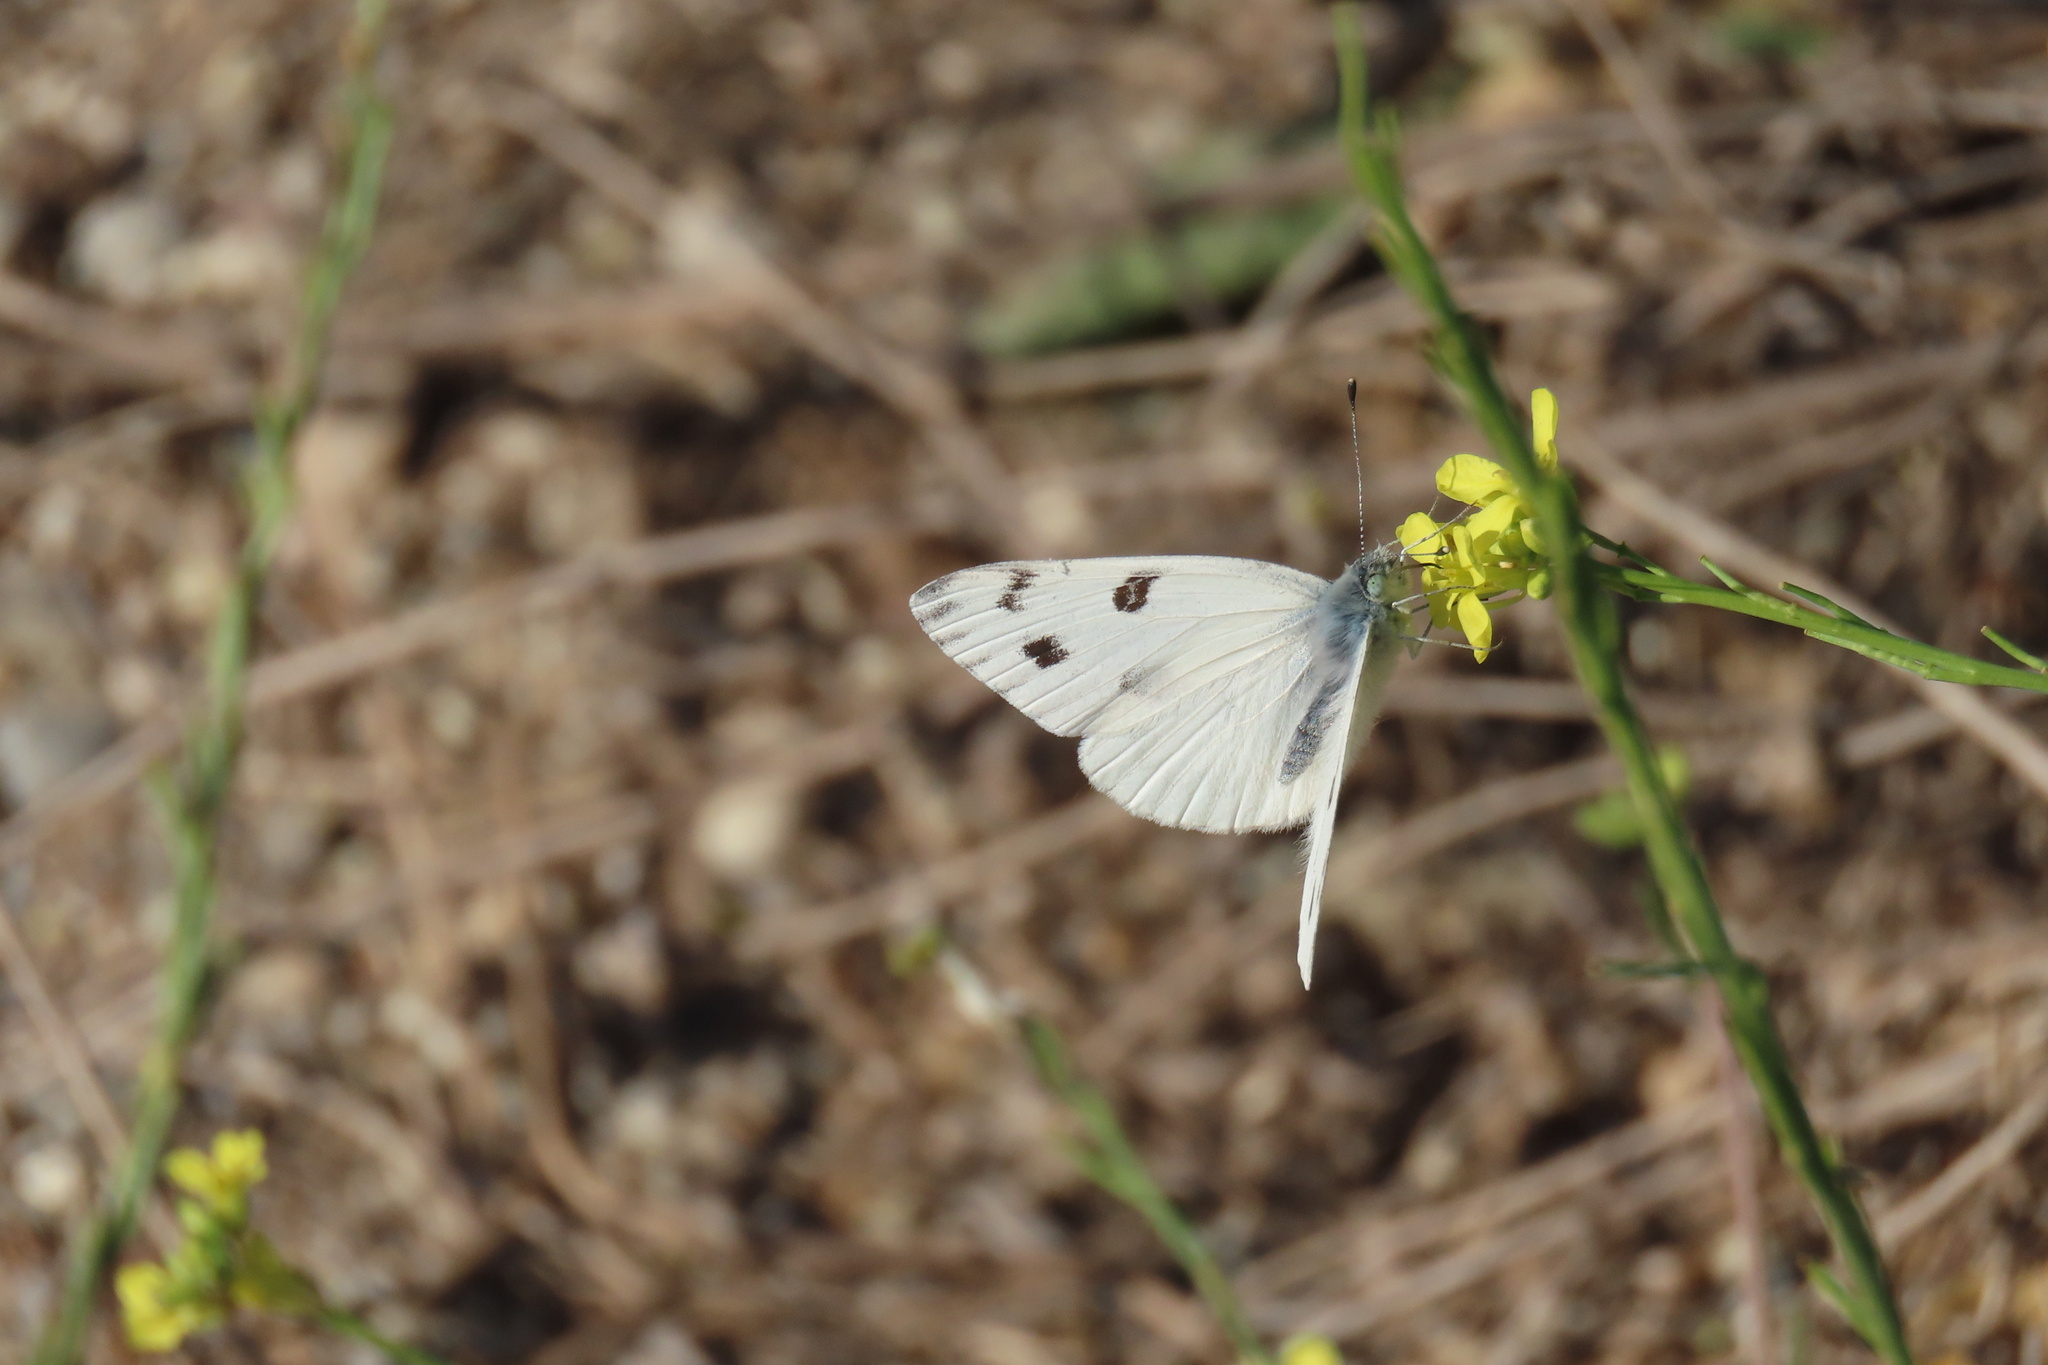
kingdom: Animalia
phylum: Arthropoda
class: Insecta
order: Lepidoptera
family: Pieridae
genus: Pontia
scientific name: Pontia protodice
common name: Checkered white
